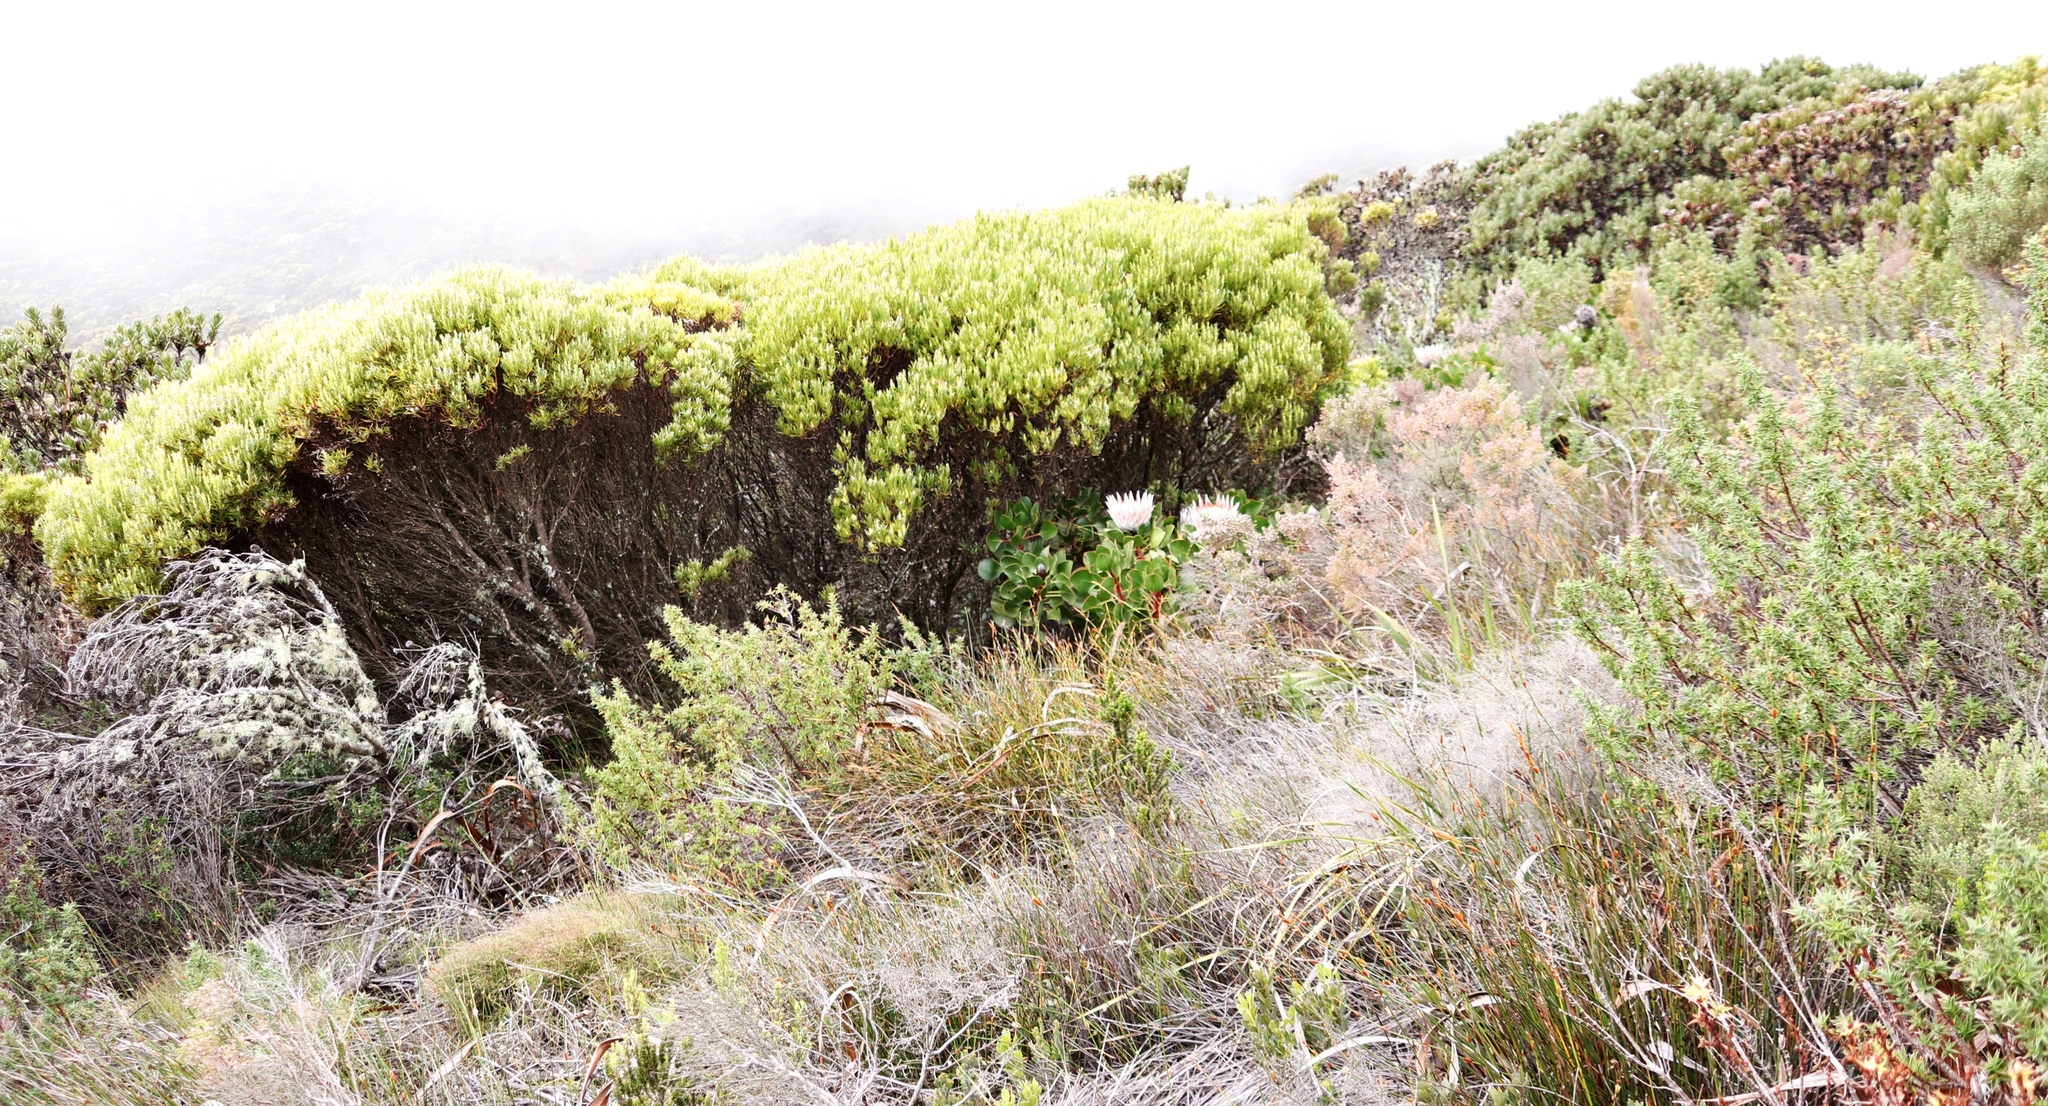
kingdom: Plantae
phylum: Tracheophyta
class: Magnoliopsida
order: Proteales
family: Proteaceae
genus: Protea
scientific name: Protea cynaroides
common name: King protea
